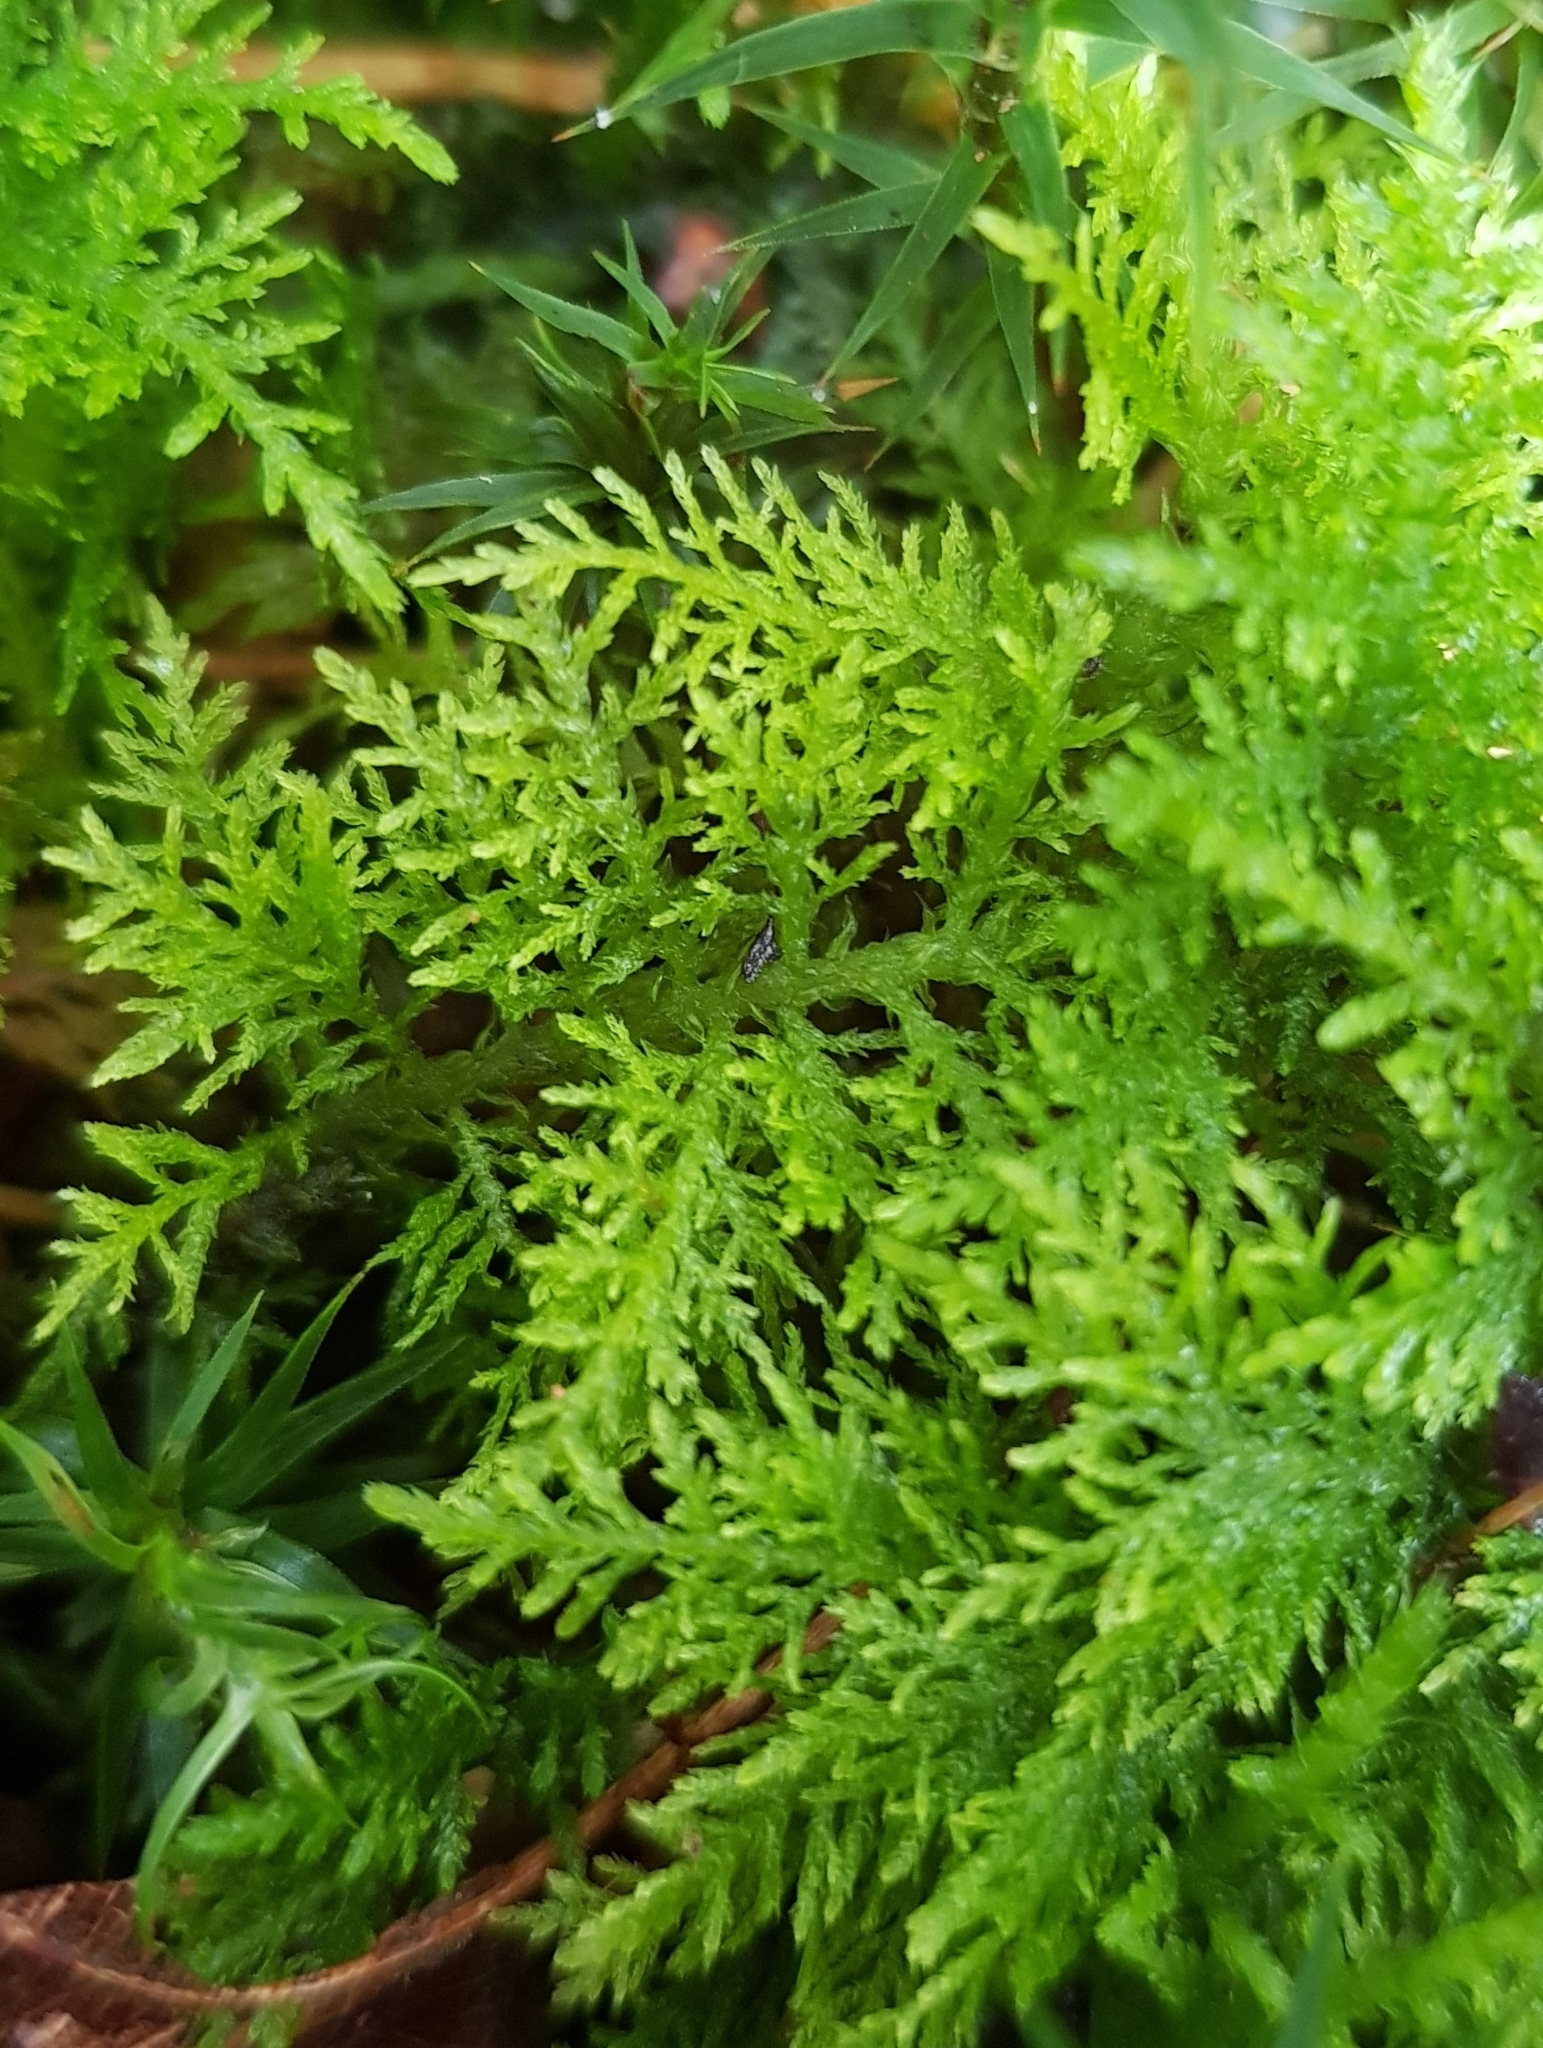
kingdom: Plantae
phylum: Bryophyta
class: Bryopsida
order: Hypnales
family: Thuidiaceae
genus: Thuidium
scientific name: Thuidium tamariscinum
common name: Common tamarisk-moss
